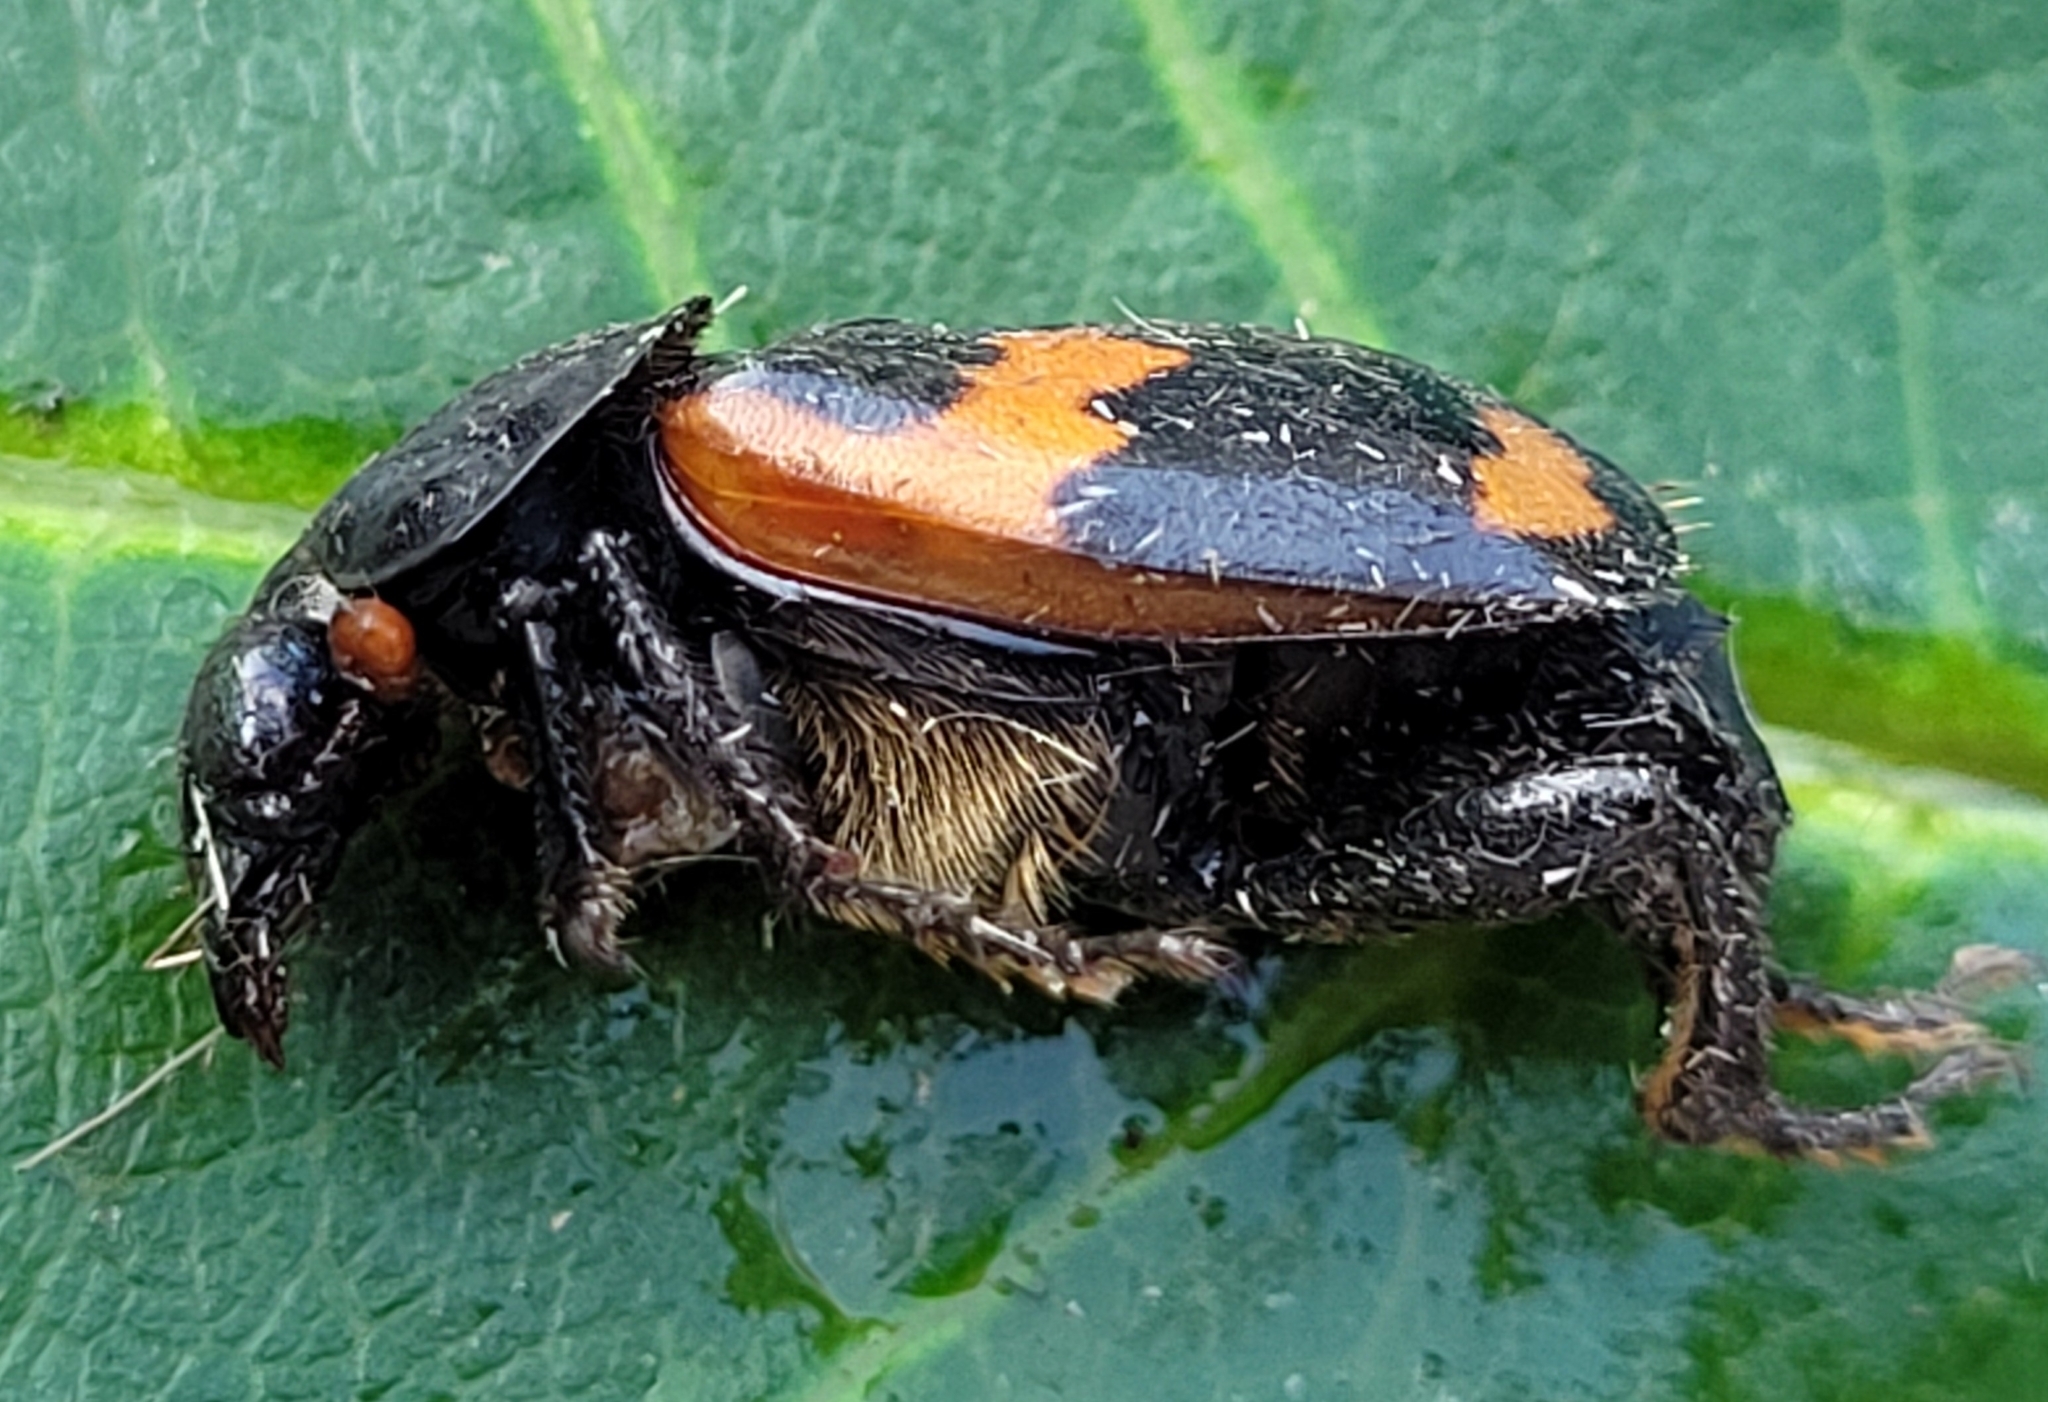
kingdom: Animalia
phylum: Arthropoda
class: Insecta
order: Coleoptera
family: Staphylinidae
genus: Nicrophorus
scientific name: Nicrophorus sayi
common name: Say's burying beetle
